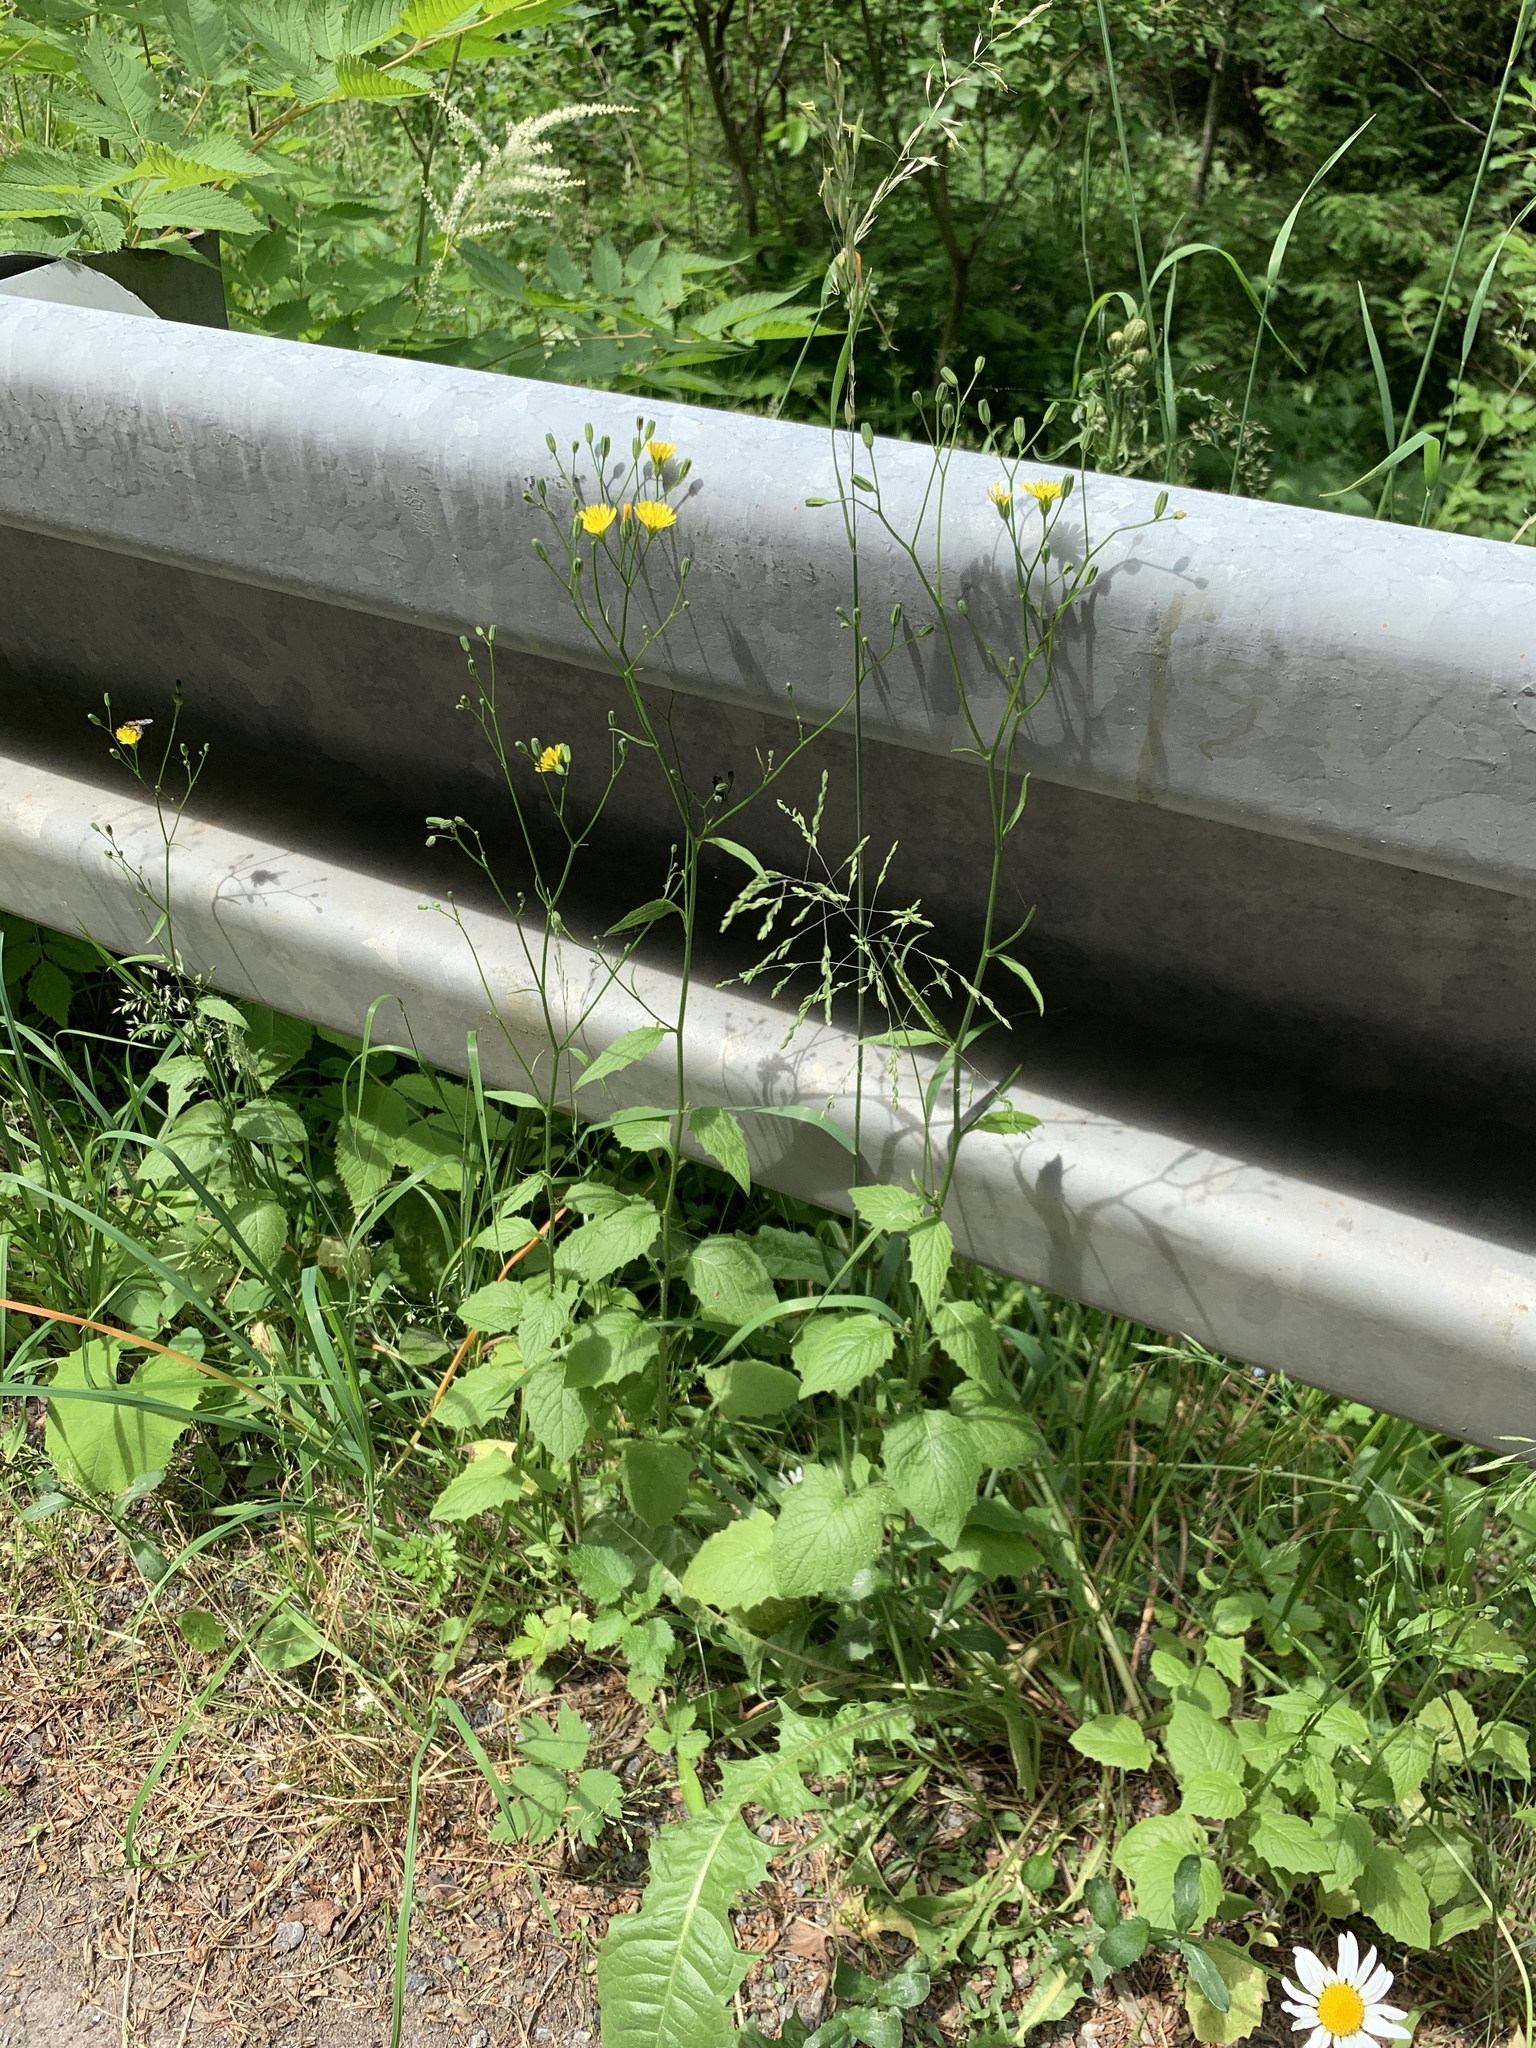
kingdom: Plantae
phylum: Tracheophyta
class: Magnoliopsida
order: Asterales
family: Asteraceae
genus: Lapsana
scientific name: Lapsana communis
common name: Nipplewort
